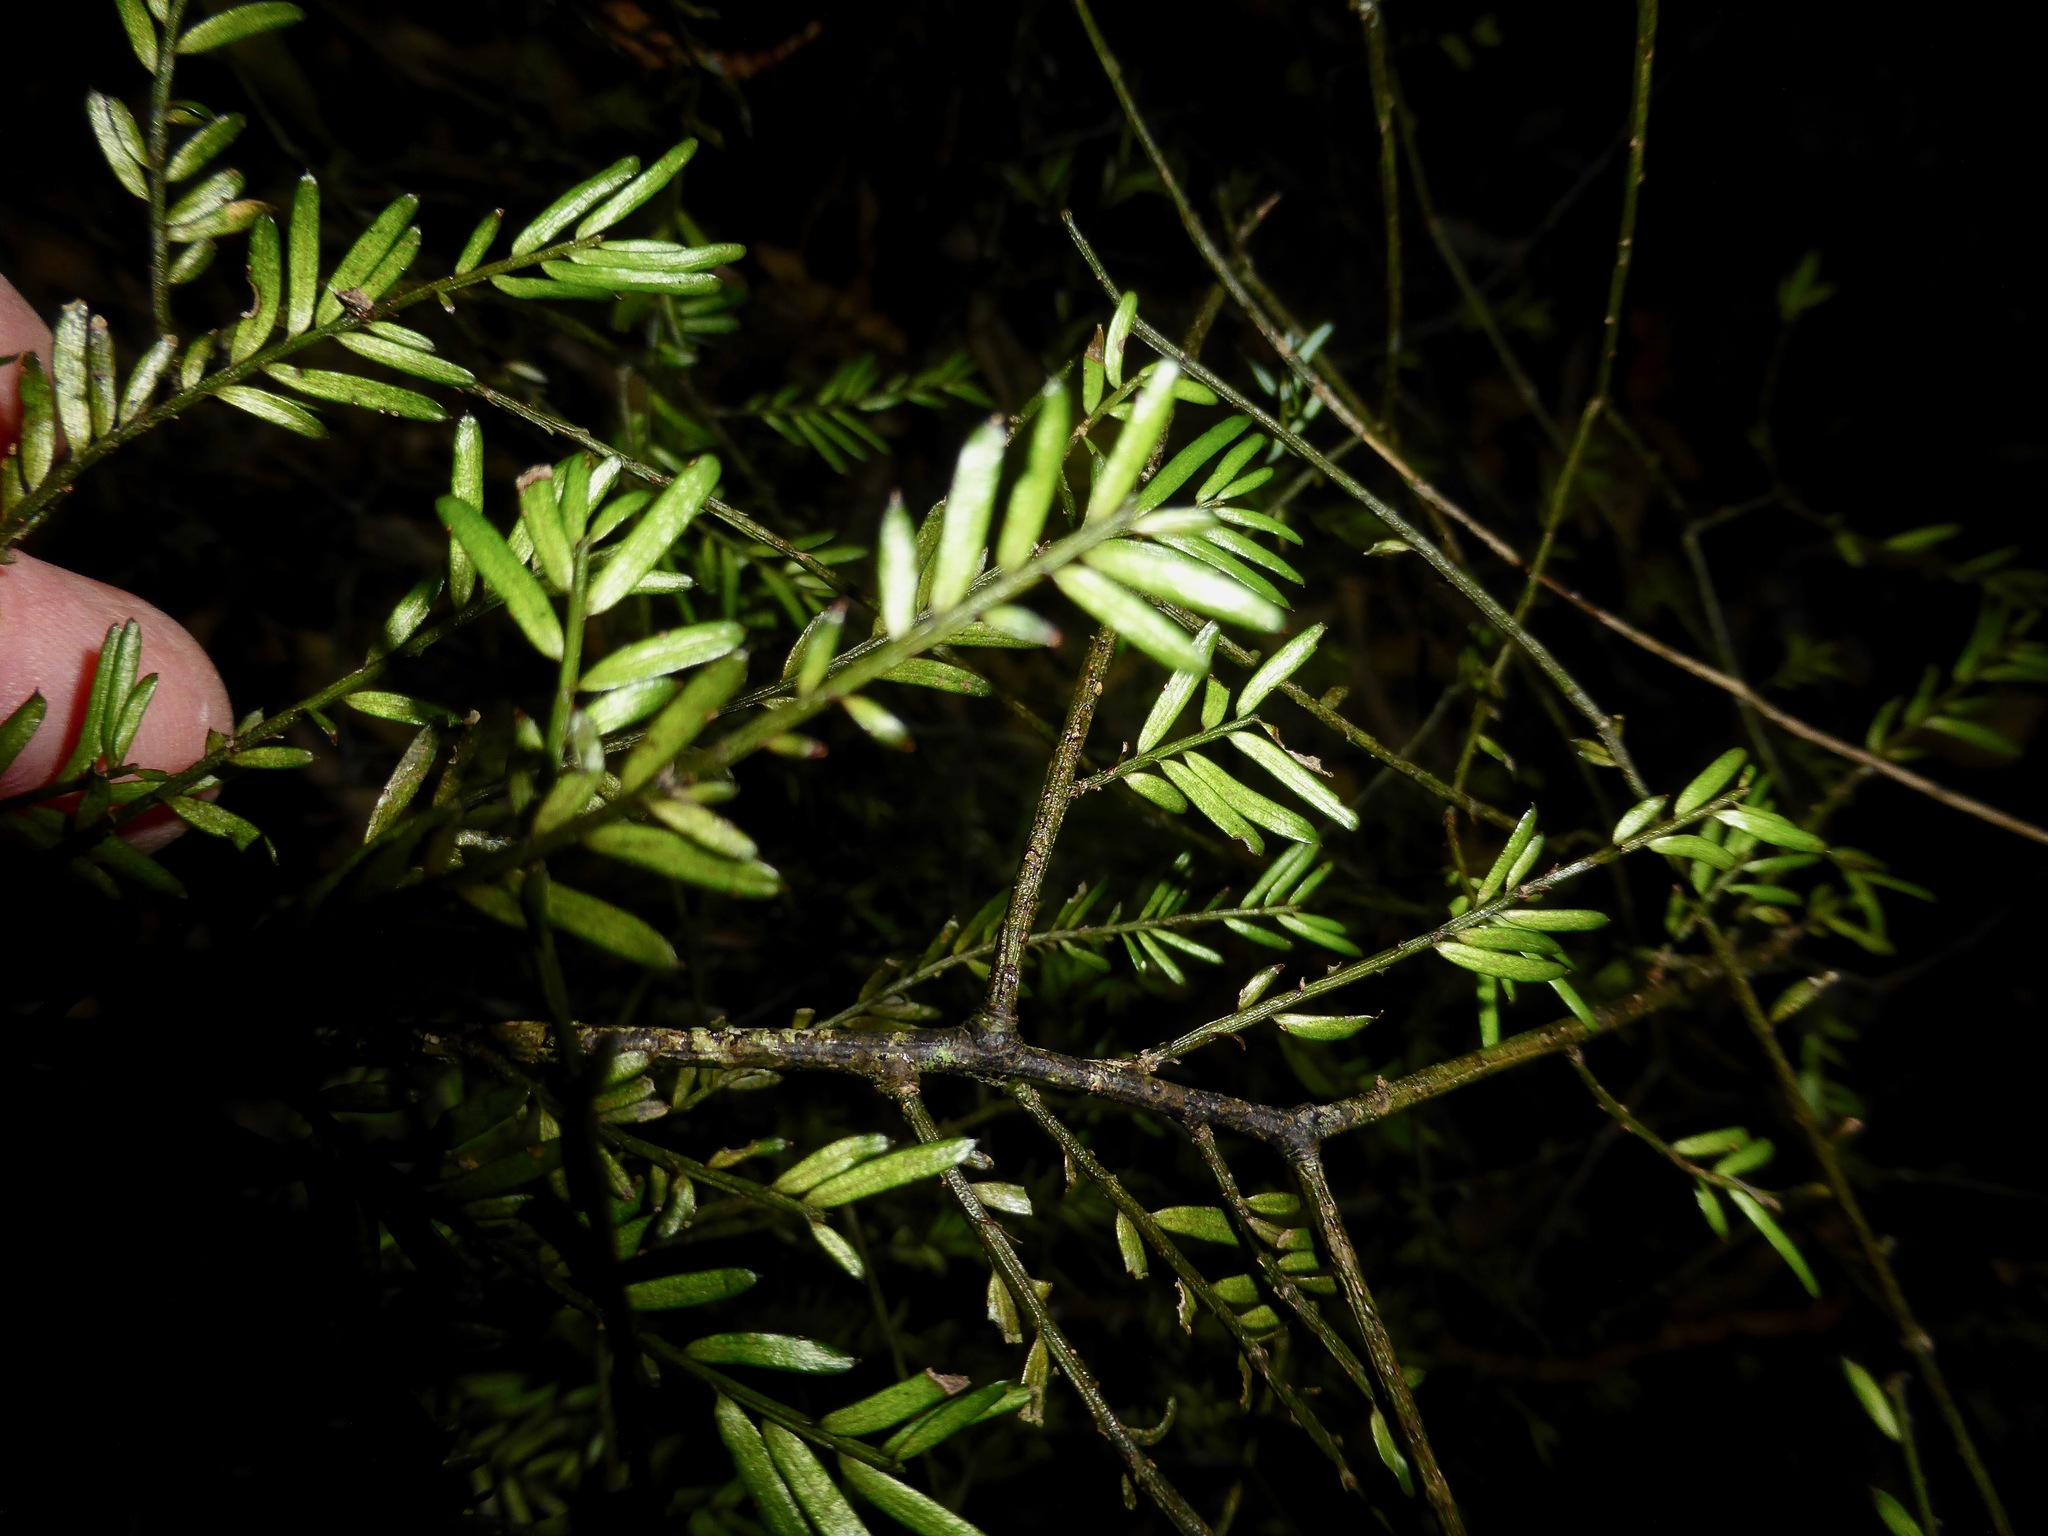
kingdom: Plantae
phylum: Tracheophyta
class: Pinopsida
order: Pinales
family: Podocarpaceae
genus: Prumnopitys
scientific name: Prumnopitys taxifolia
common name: Matai
